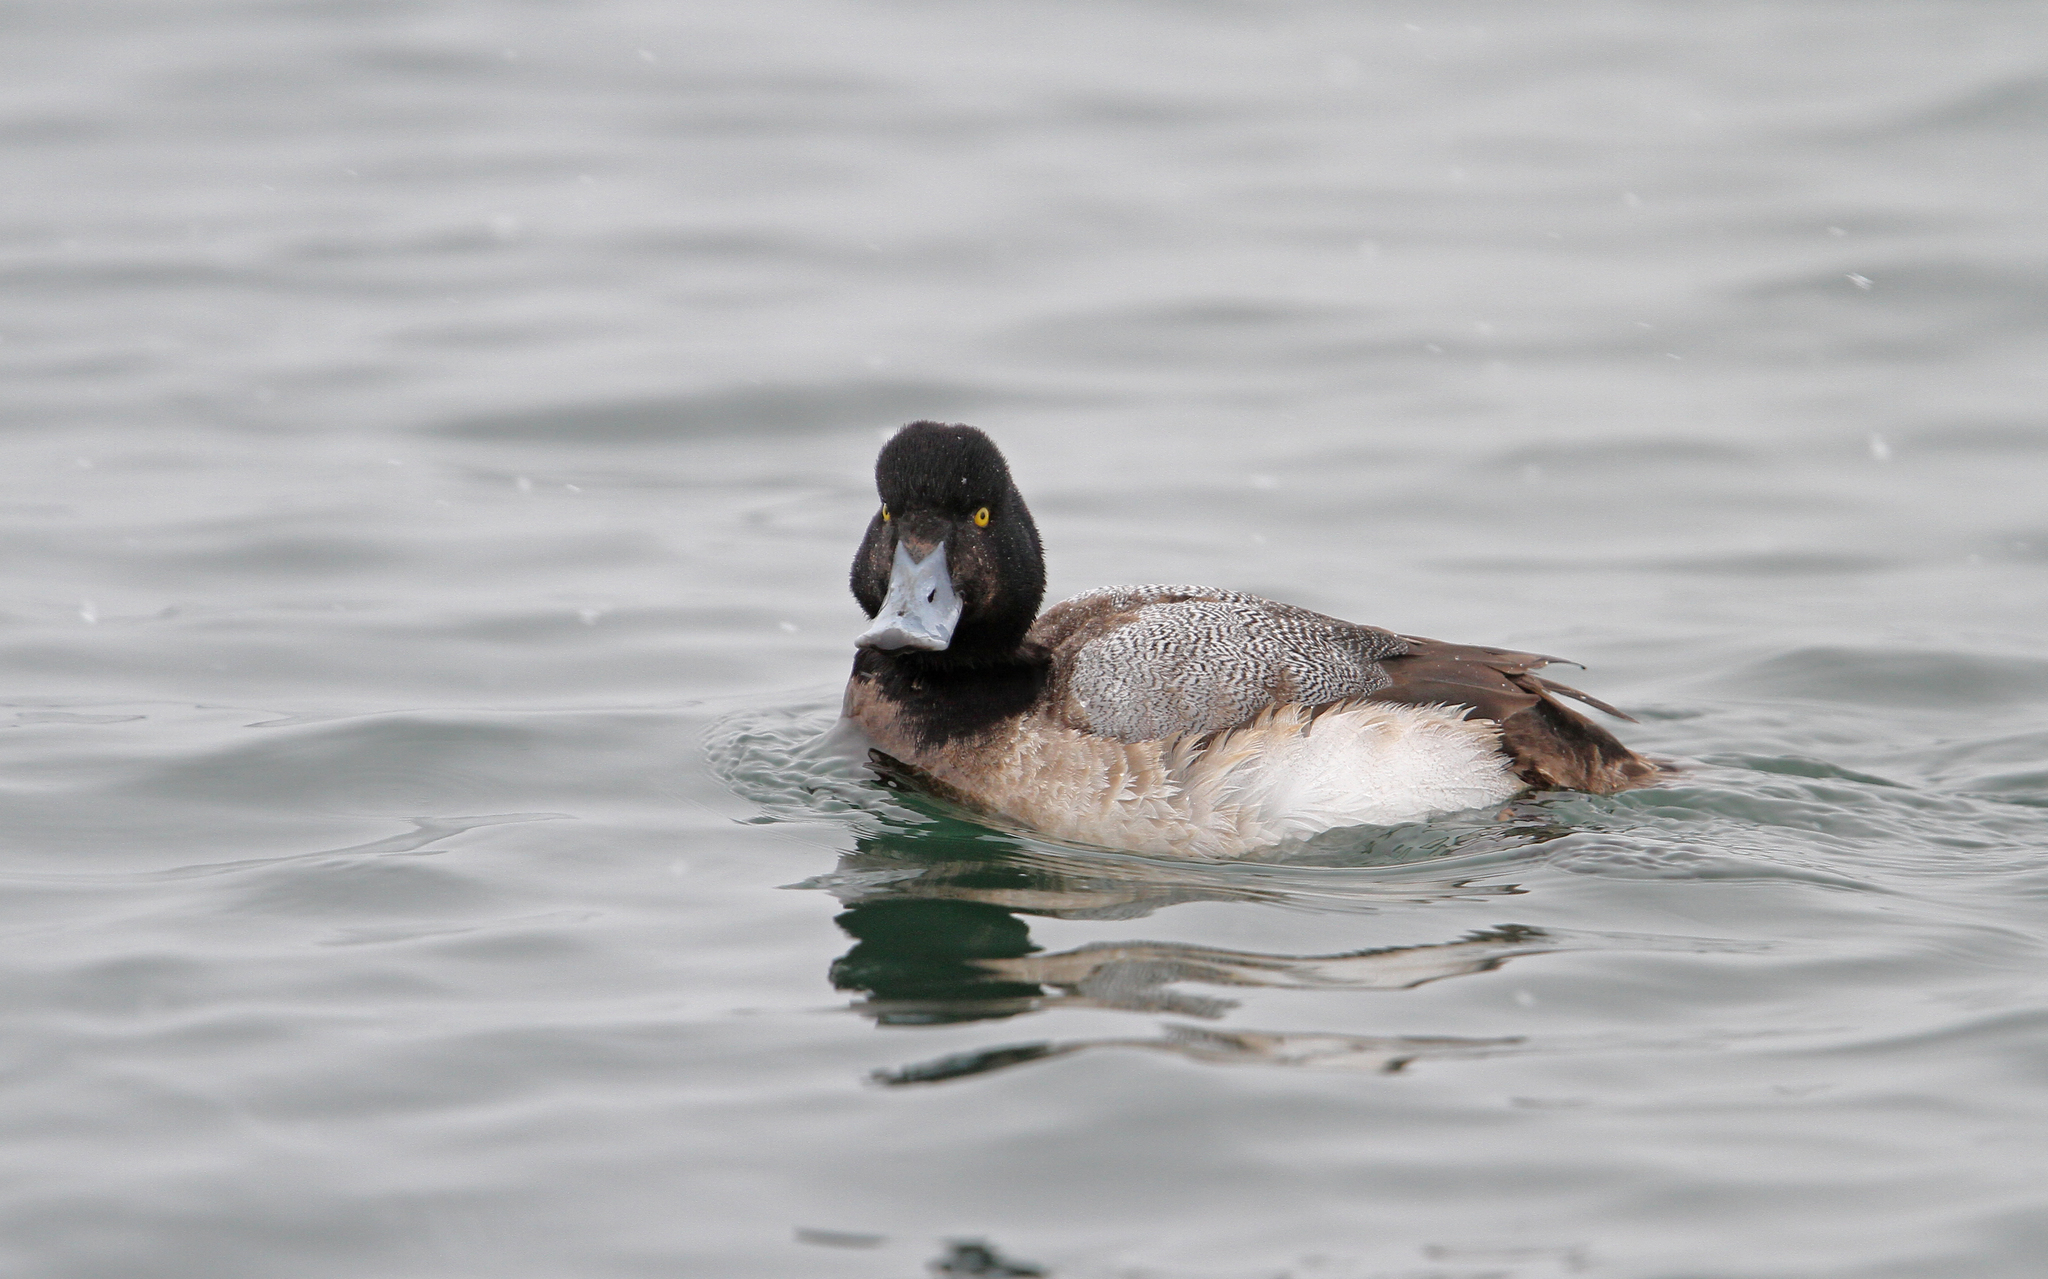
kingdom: Animalia
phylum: Chordata
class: Aves
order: Anseriformes
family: Anatidae
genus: Aythya
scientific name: Aythya marila
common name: Greater scaup
